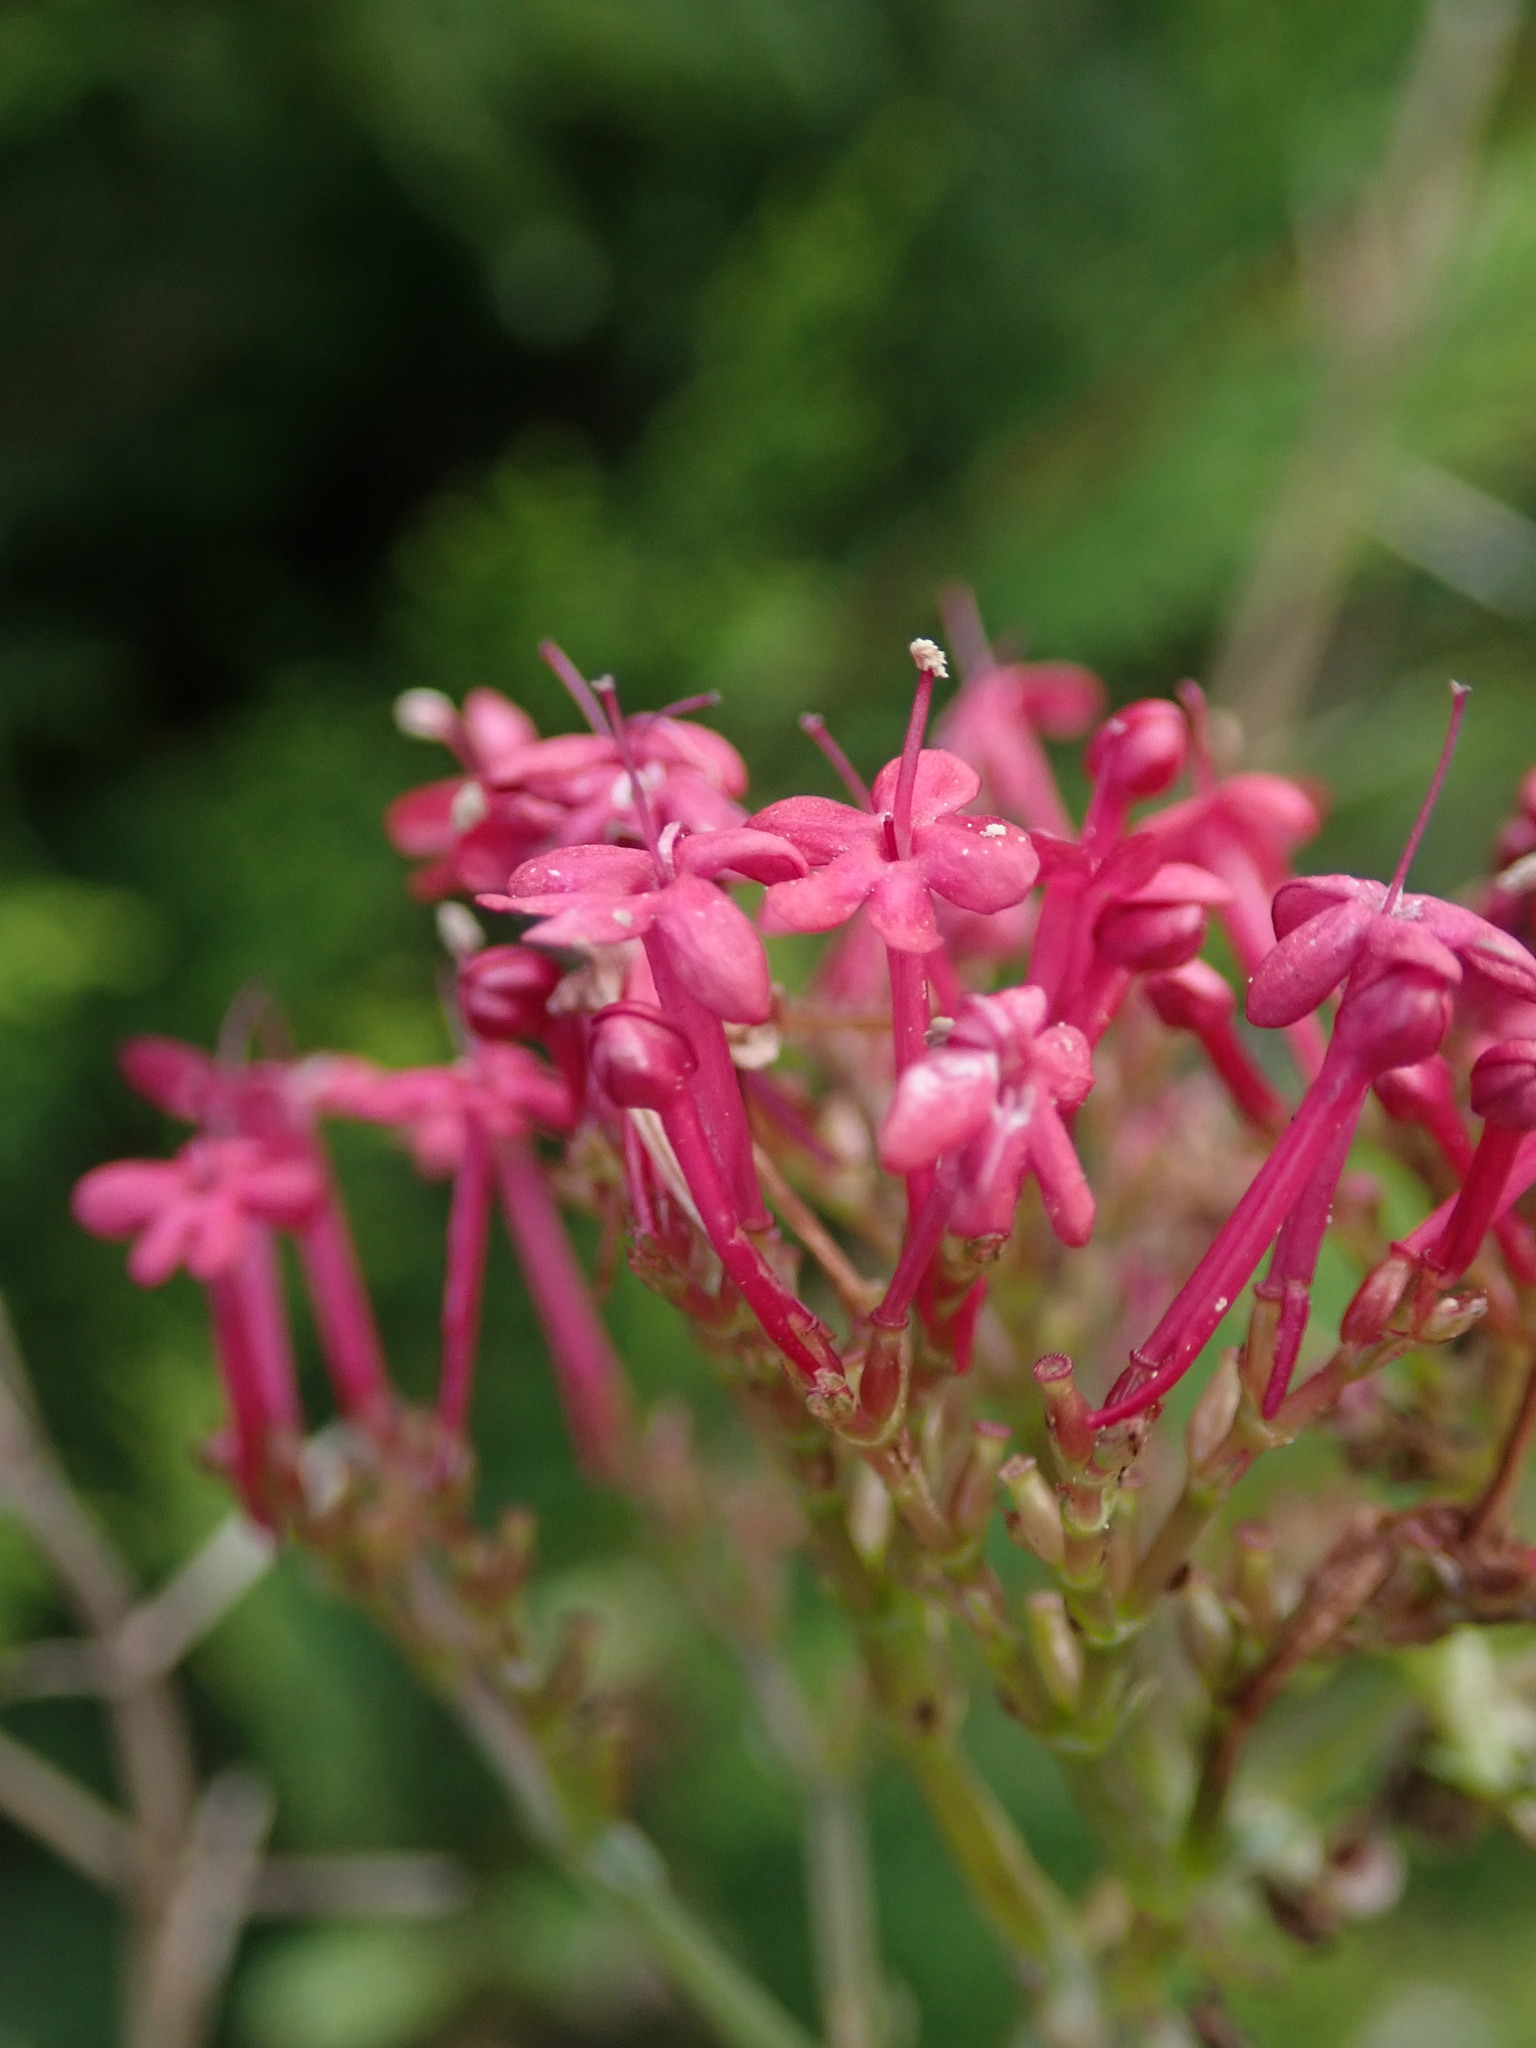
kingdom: Plantae
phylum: Tracheophyta
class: Magnoliopsida
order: Dipsacales
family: Caprifoliaceae
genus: Centranthus
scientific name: Centranthus ruber
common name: Red valerian
